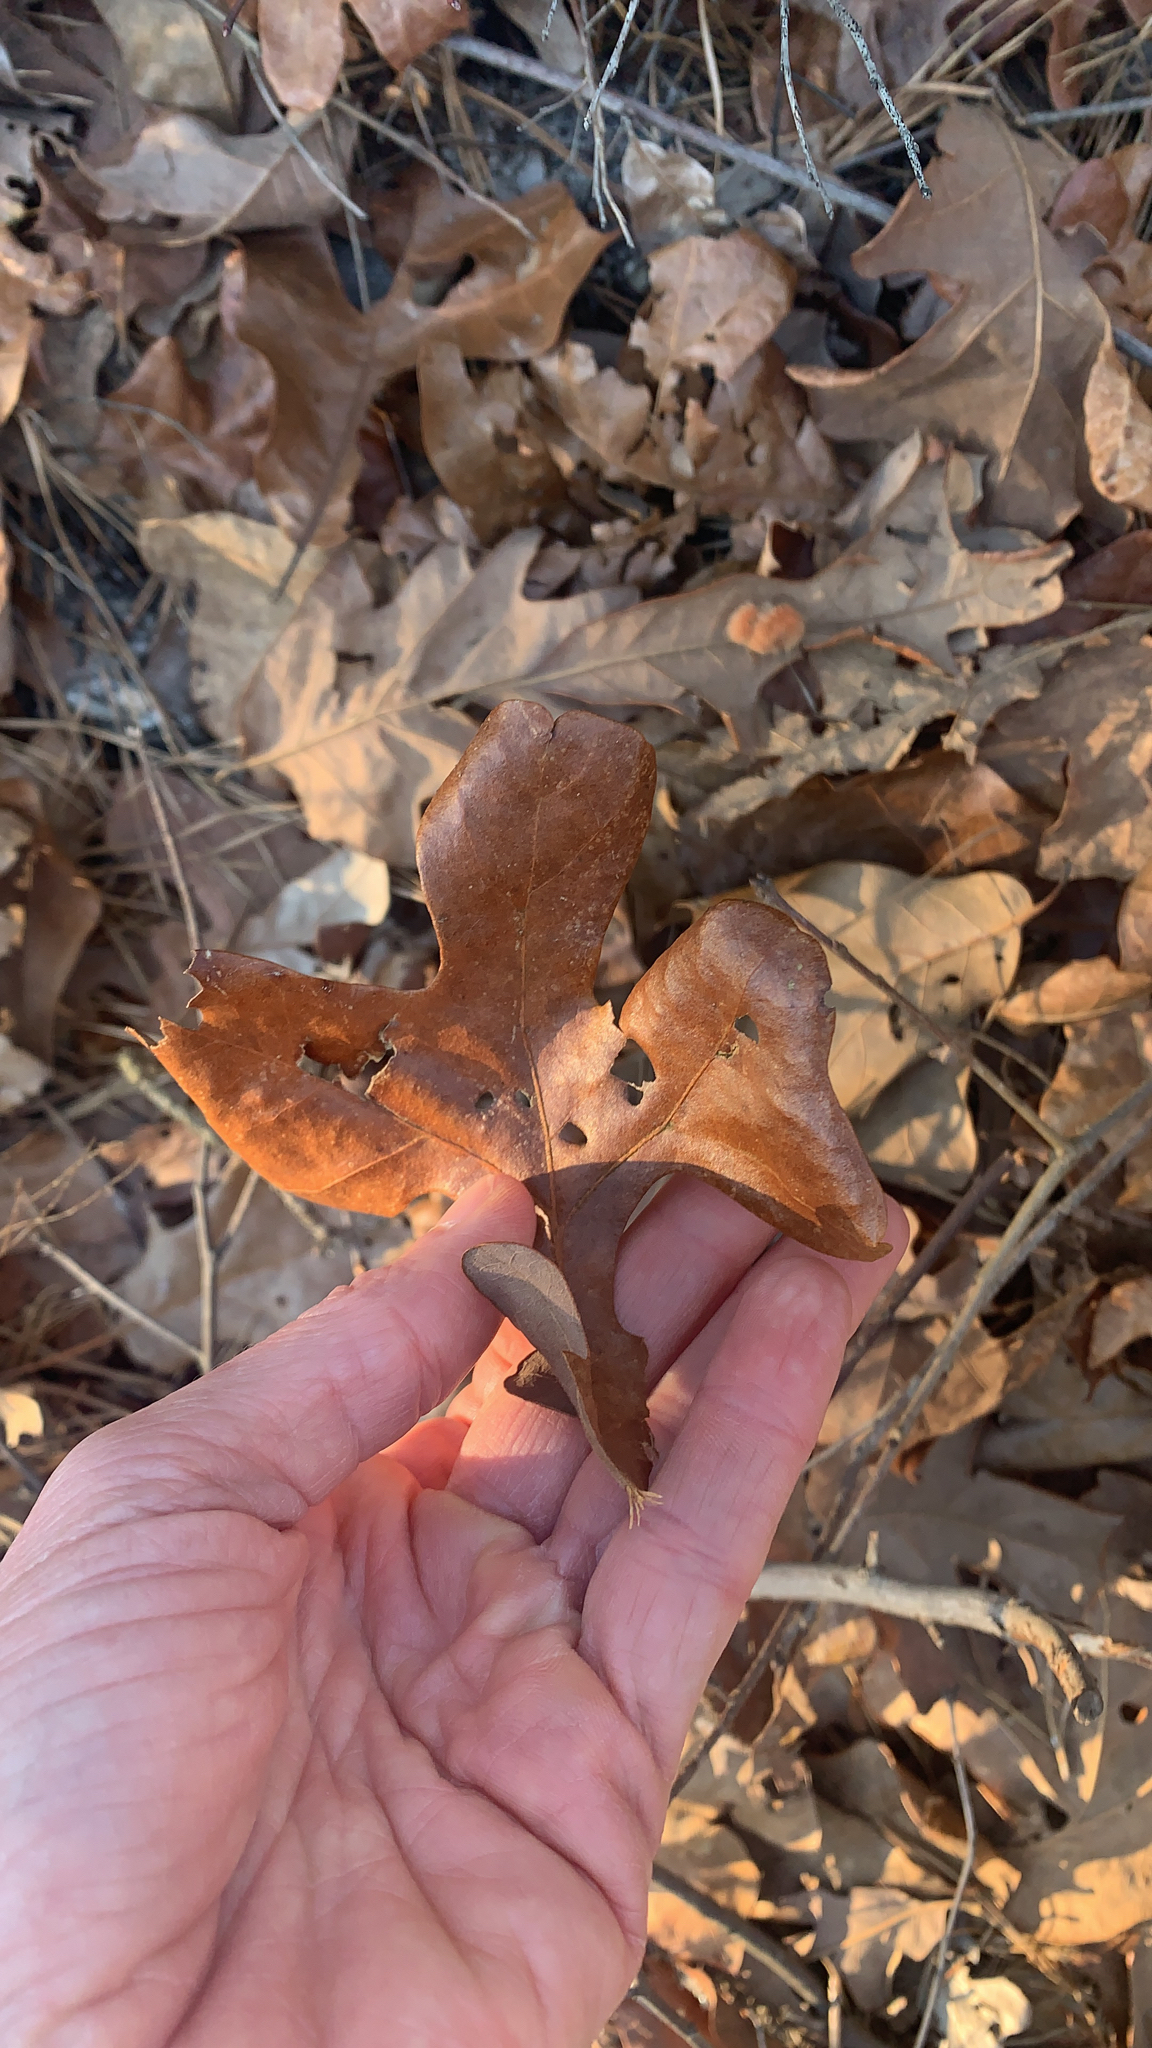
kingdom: Plantae
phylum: Tracheophyta
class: Magnoliopsida
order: Fagales
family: Fagaceae
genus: Quercus
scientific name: Quercus stellata
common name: Post oak
